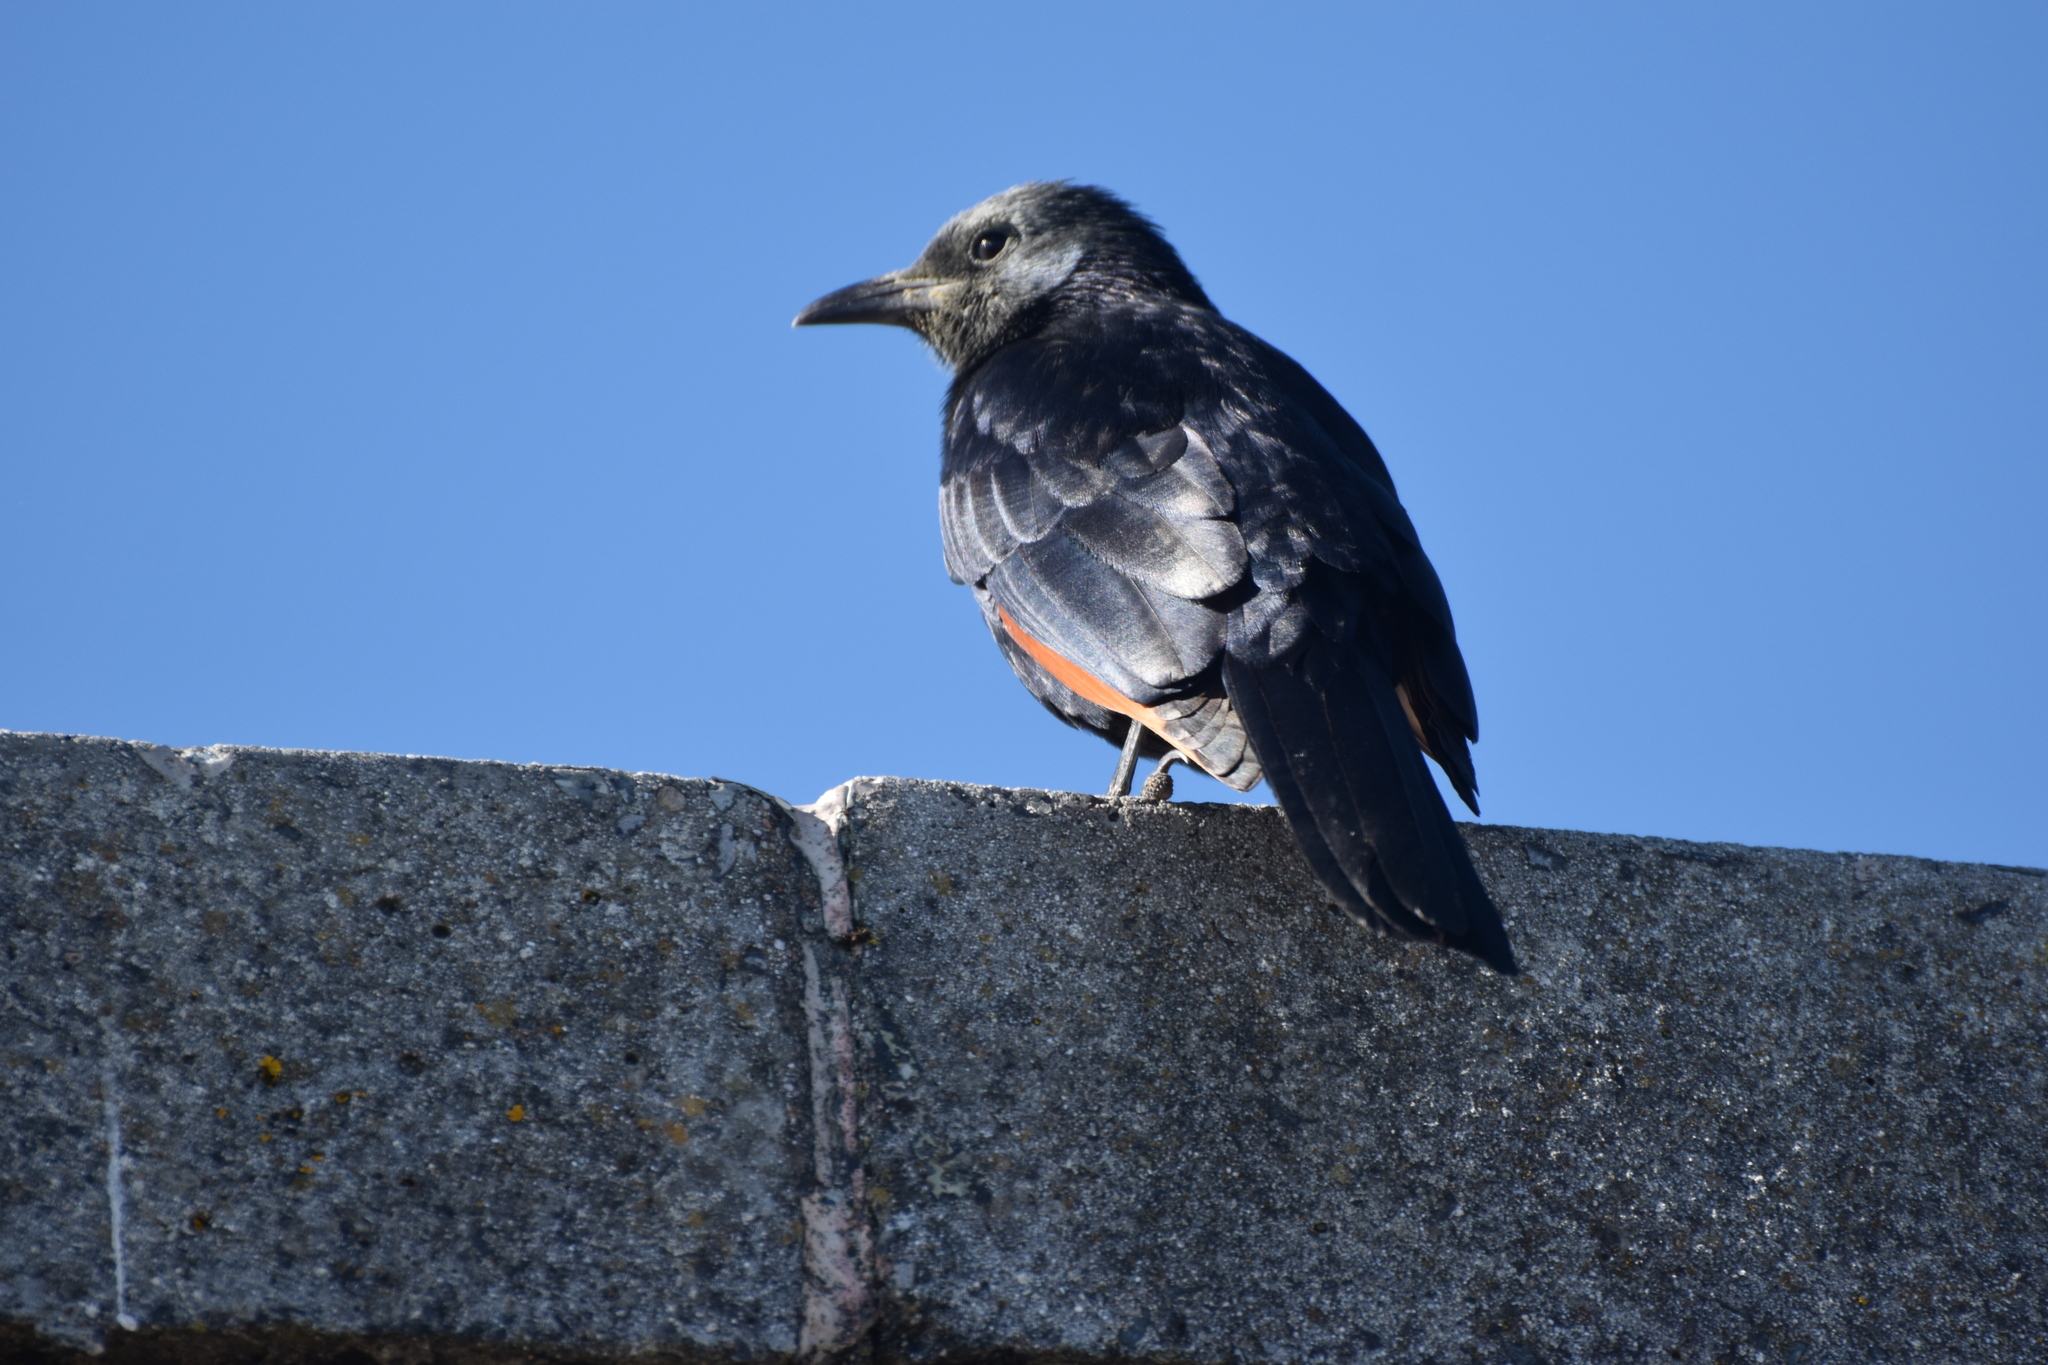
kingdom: Animalia
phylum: Chordata
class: Aves
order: Passeriformes
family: Sturnidae
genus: Onychognathus
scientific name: Onychognathus morio
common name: Red-winged starling
